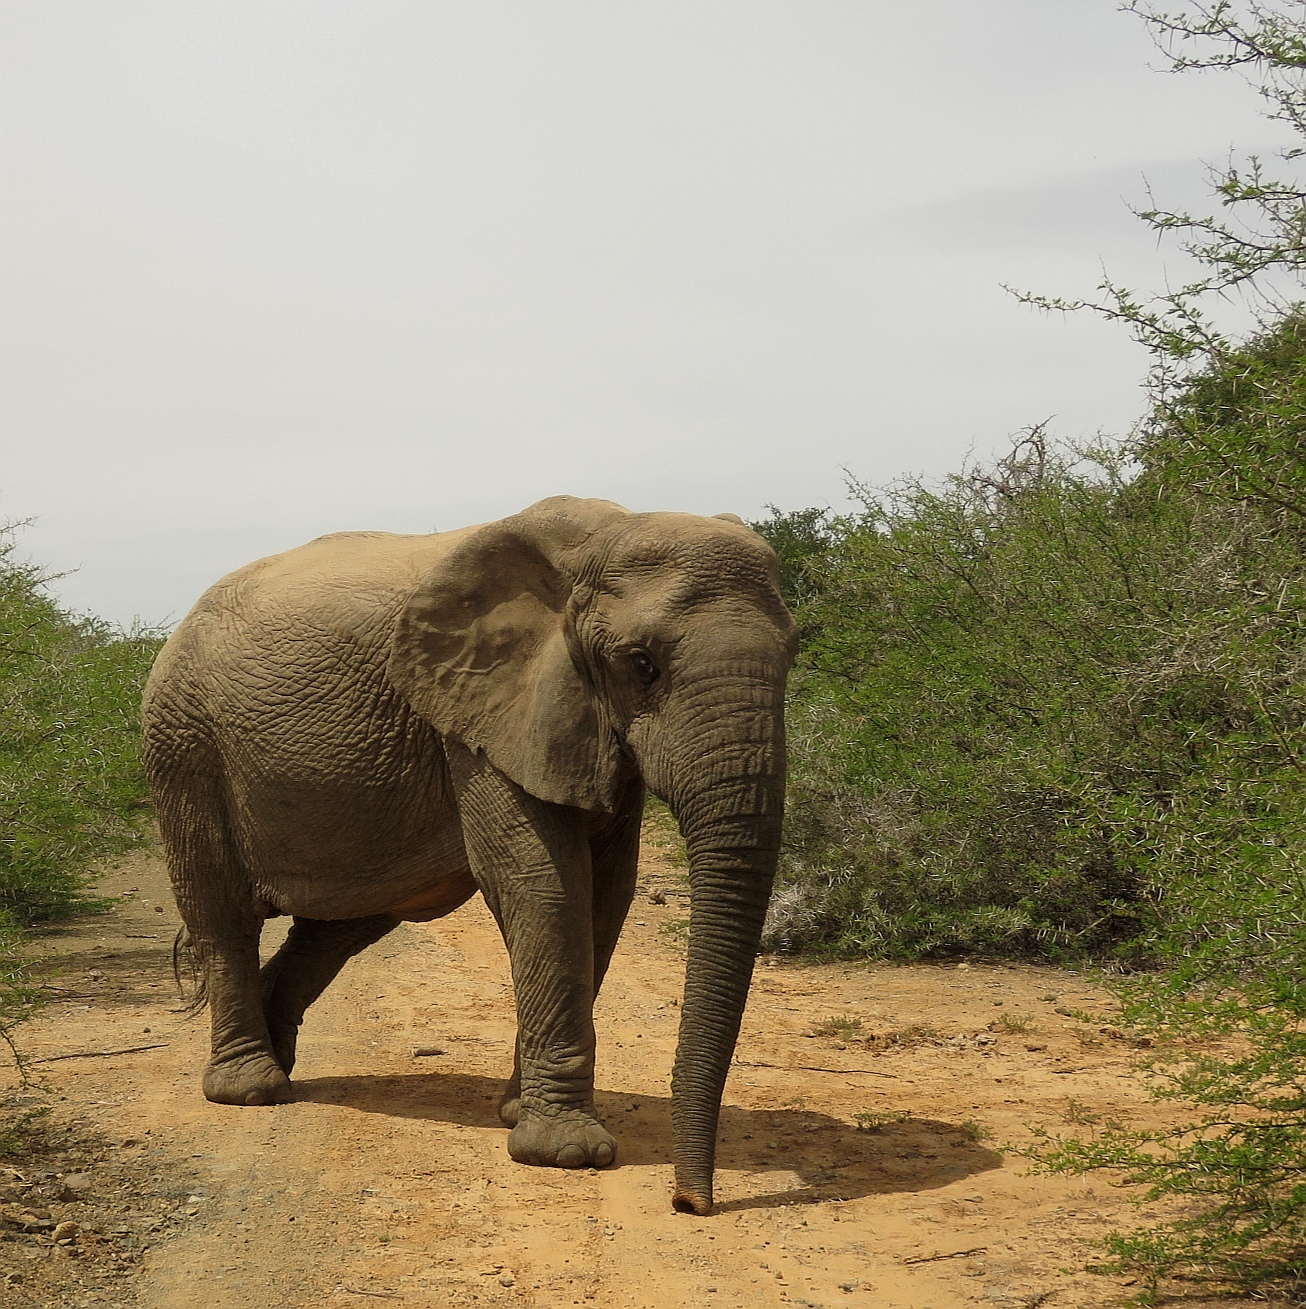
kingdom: Animalia
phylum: Chordata
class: Mammalia
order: Proboscidea
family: Elephantidae
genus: Loxodonta
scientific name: Loxodonta africana
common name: African elephant
